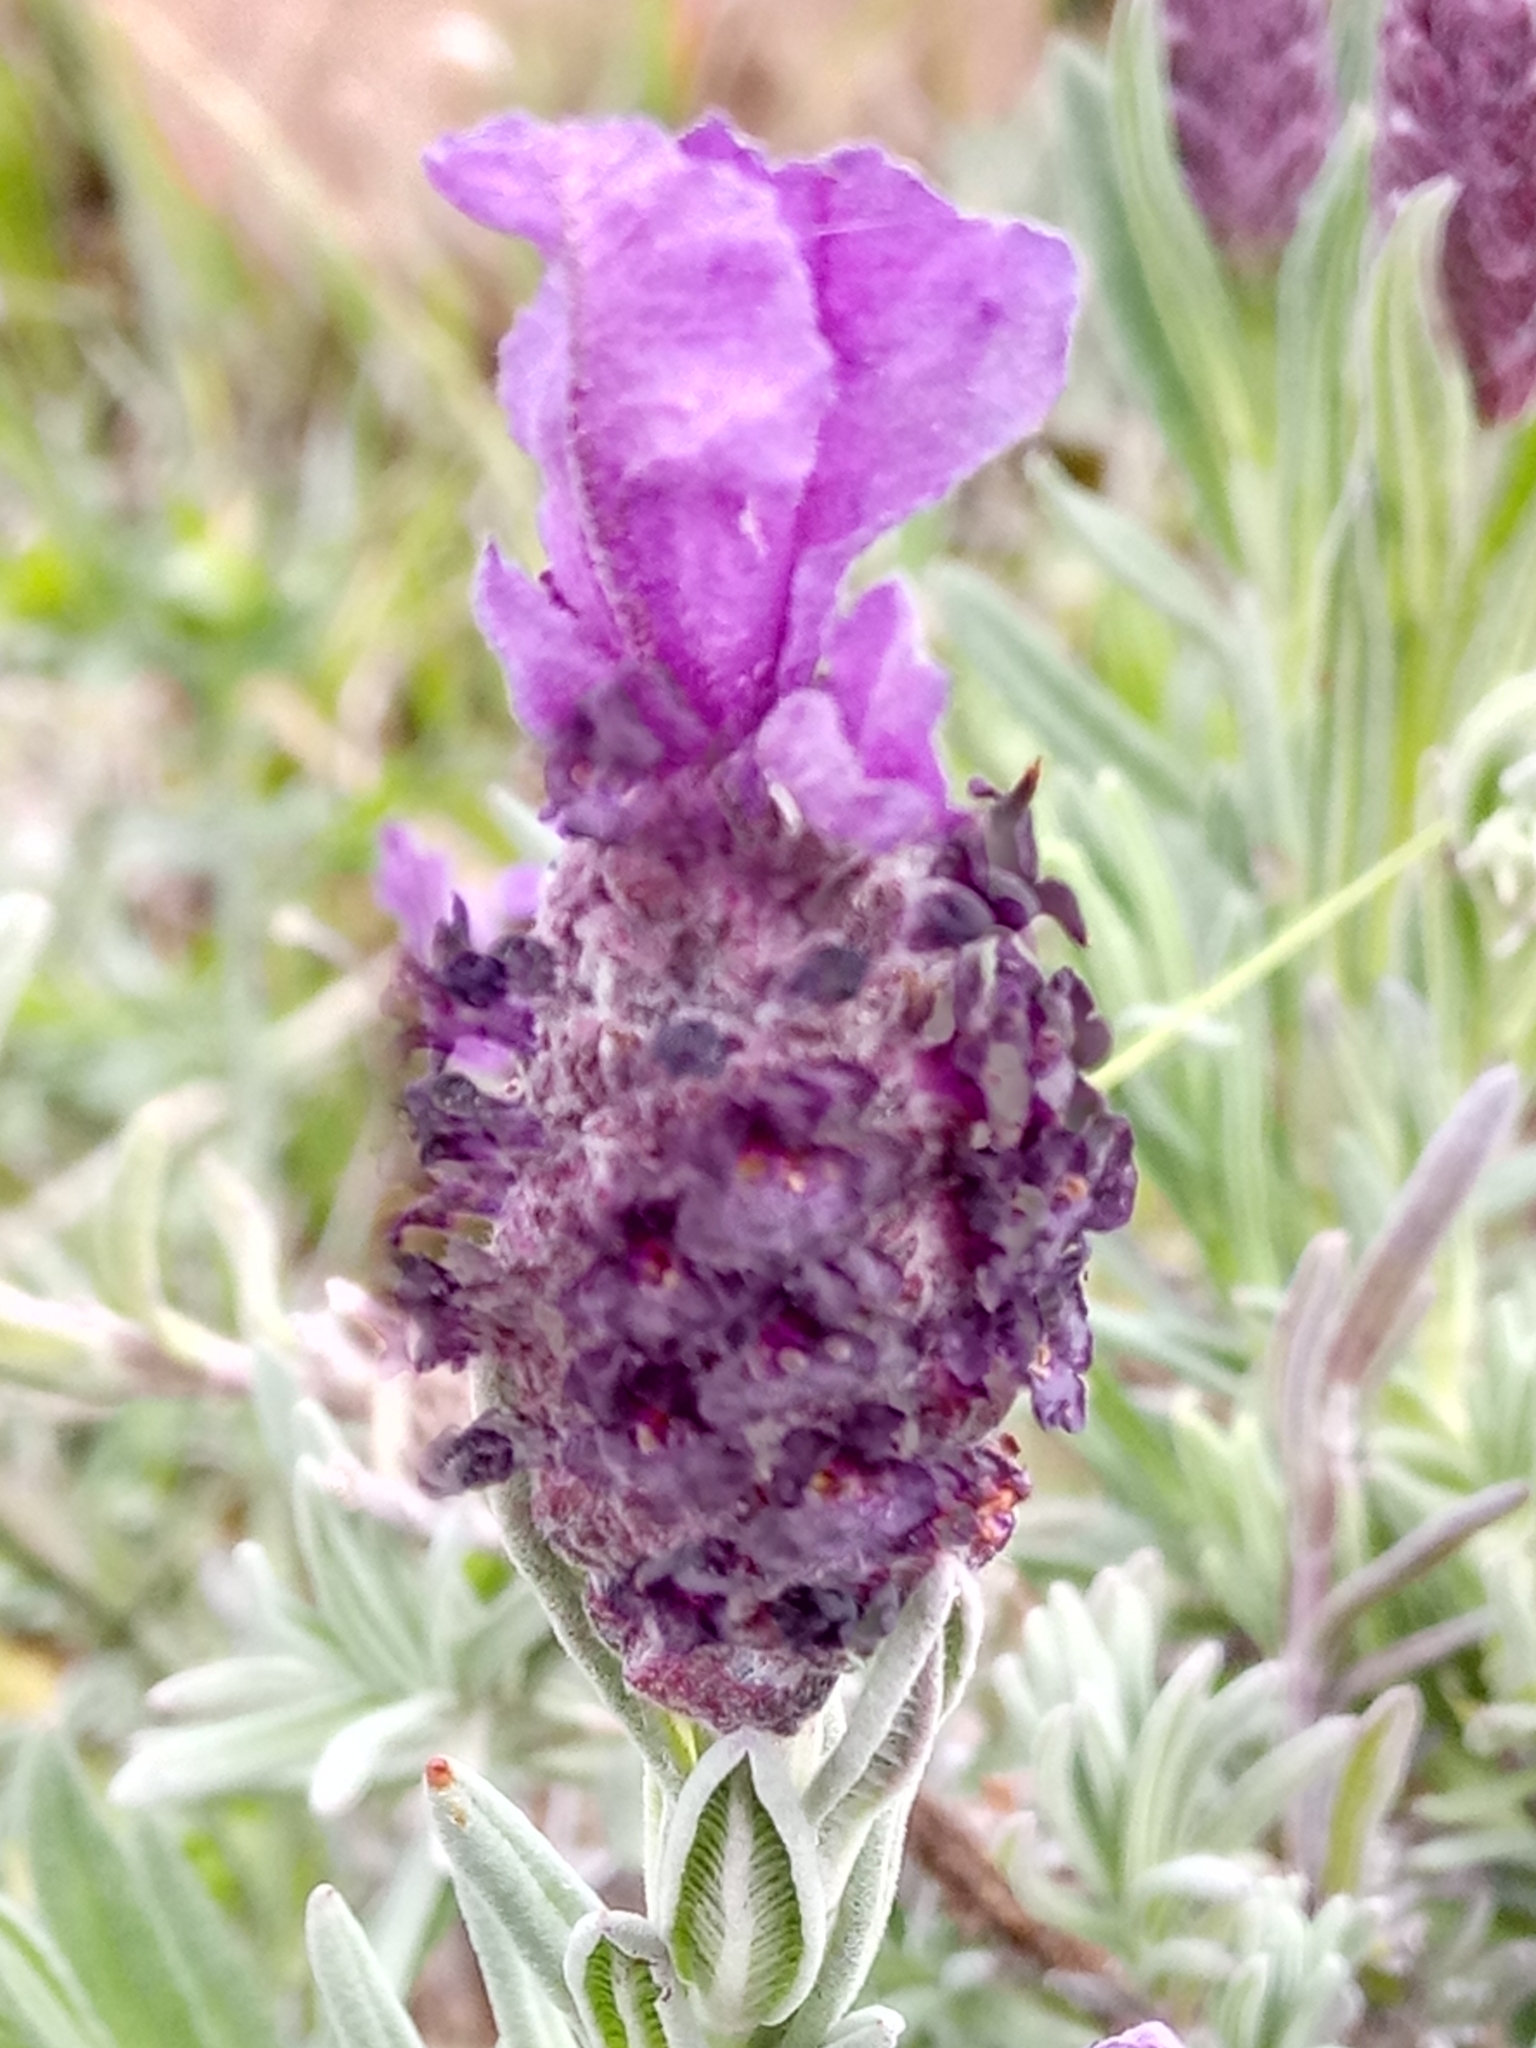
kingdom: Plantae
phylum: Tracheophyta
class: Magnoliopsida
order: Lamiales
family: Lamiaceae
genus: Lavandula
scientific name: Lavandula stoechas
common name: French lavender
